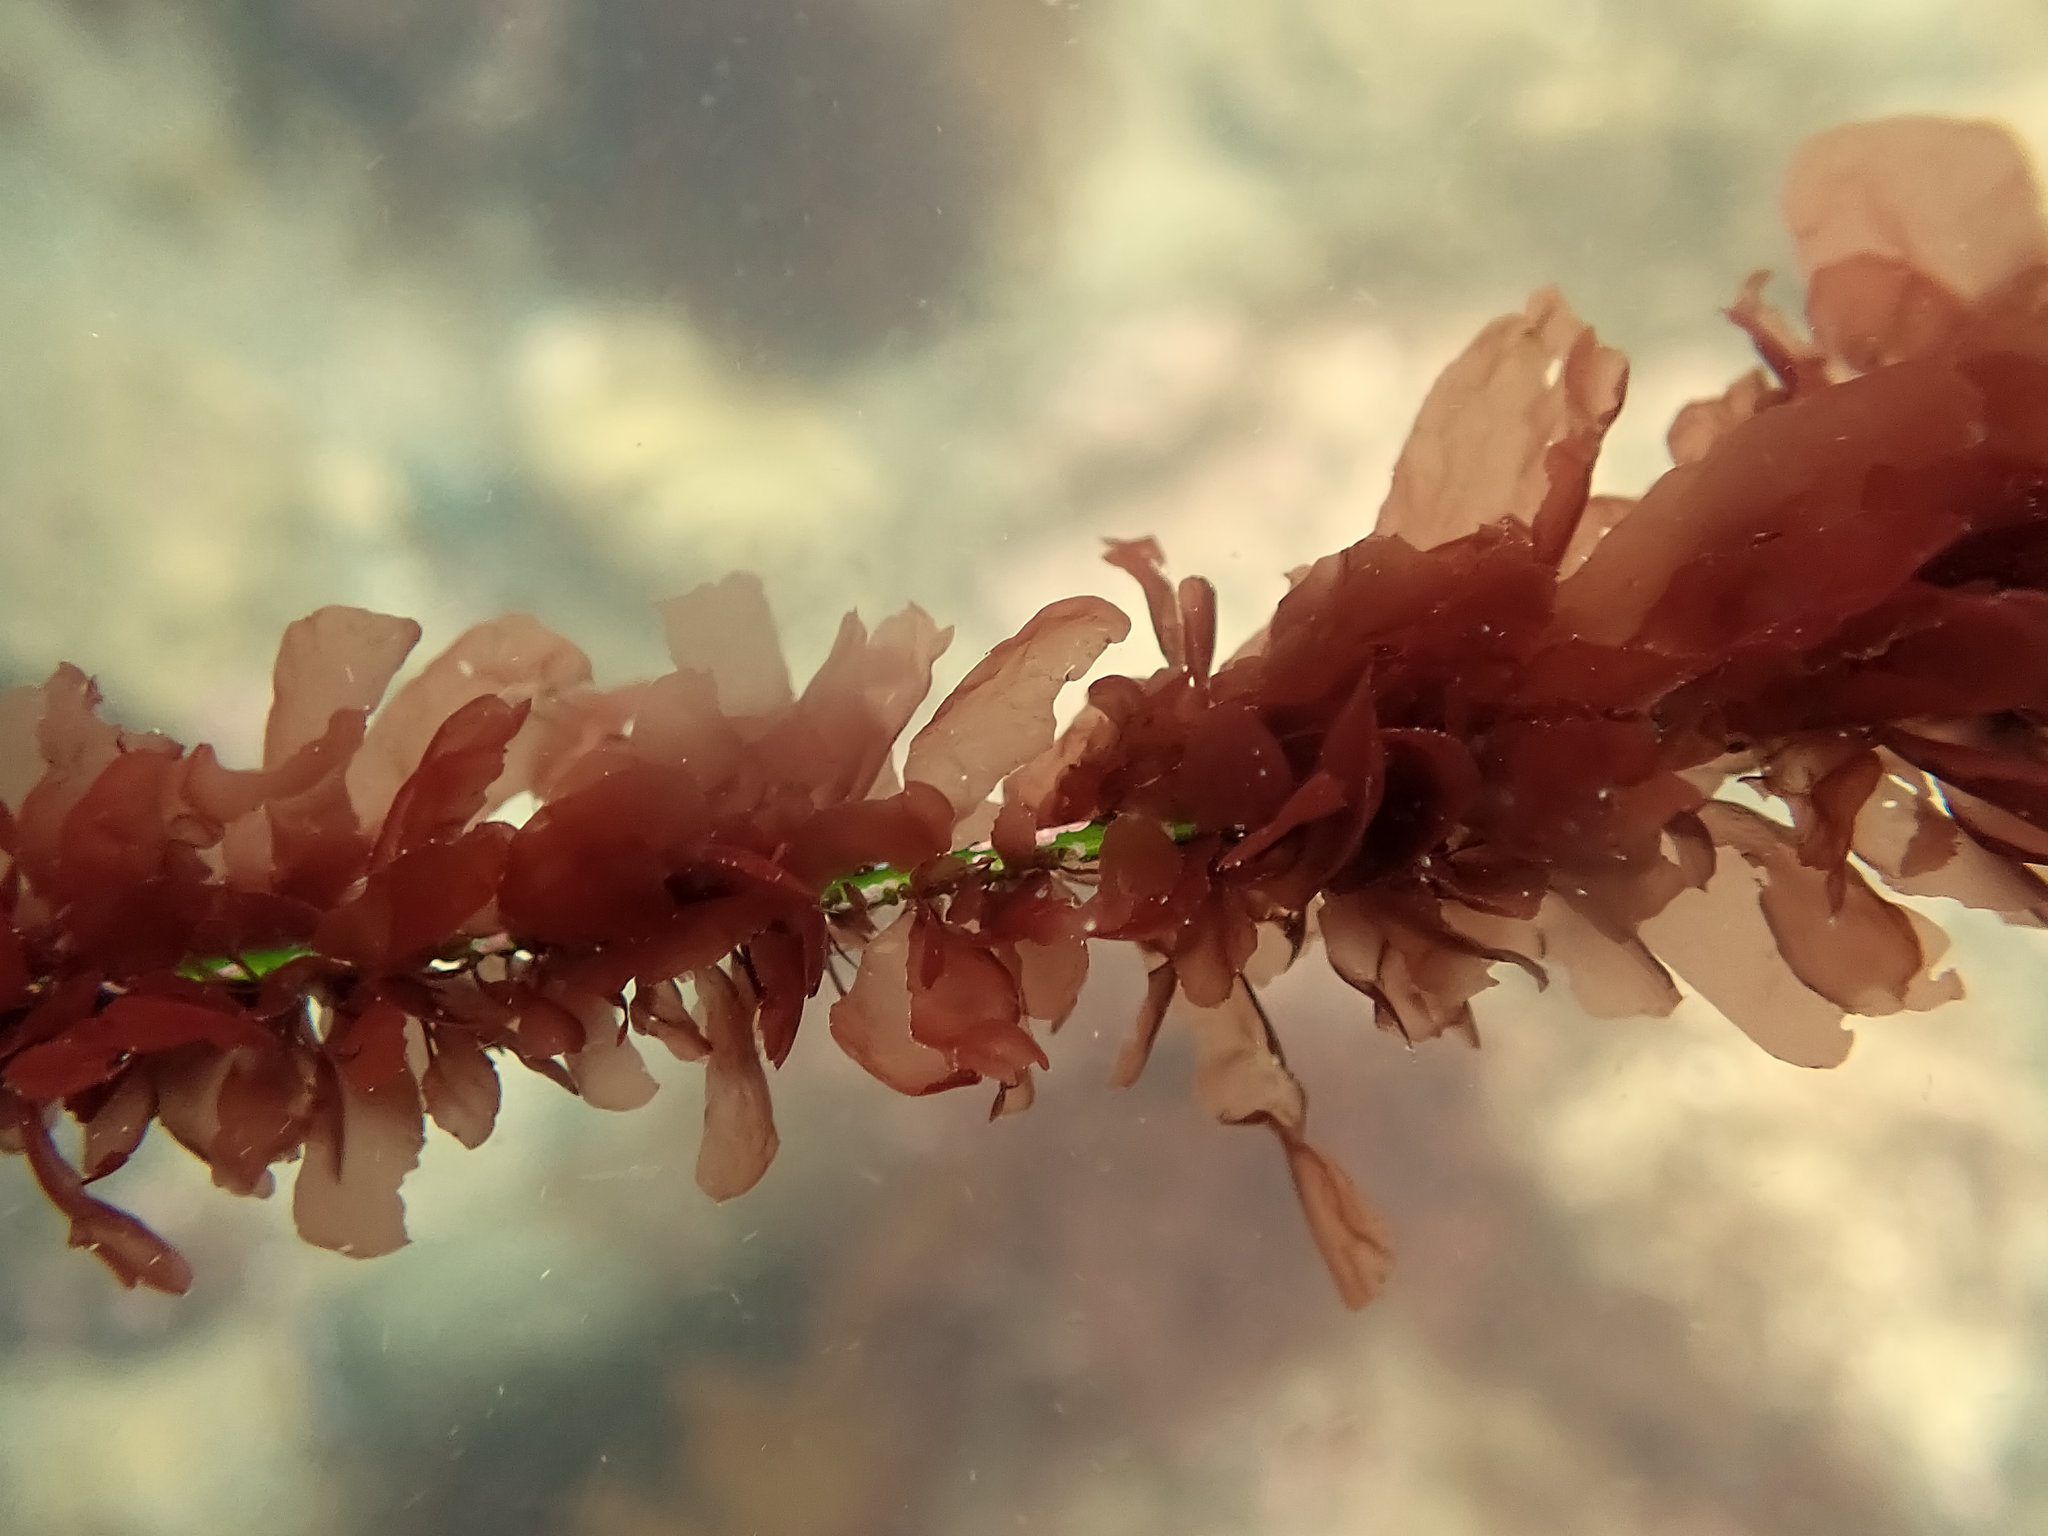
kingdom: Plantae
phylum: Rhodophyta
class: Compsopogonophyceae
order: Erythropeltidales
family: Erythrotrichiaceae
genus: Smithora
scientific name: Smithora naiadum
